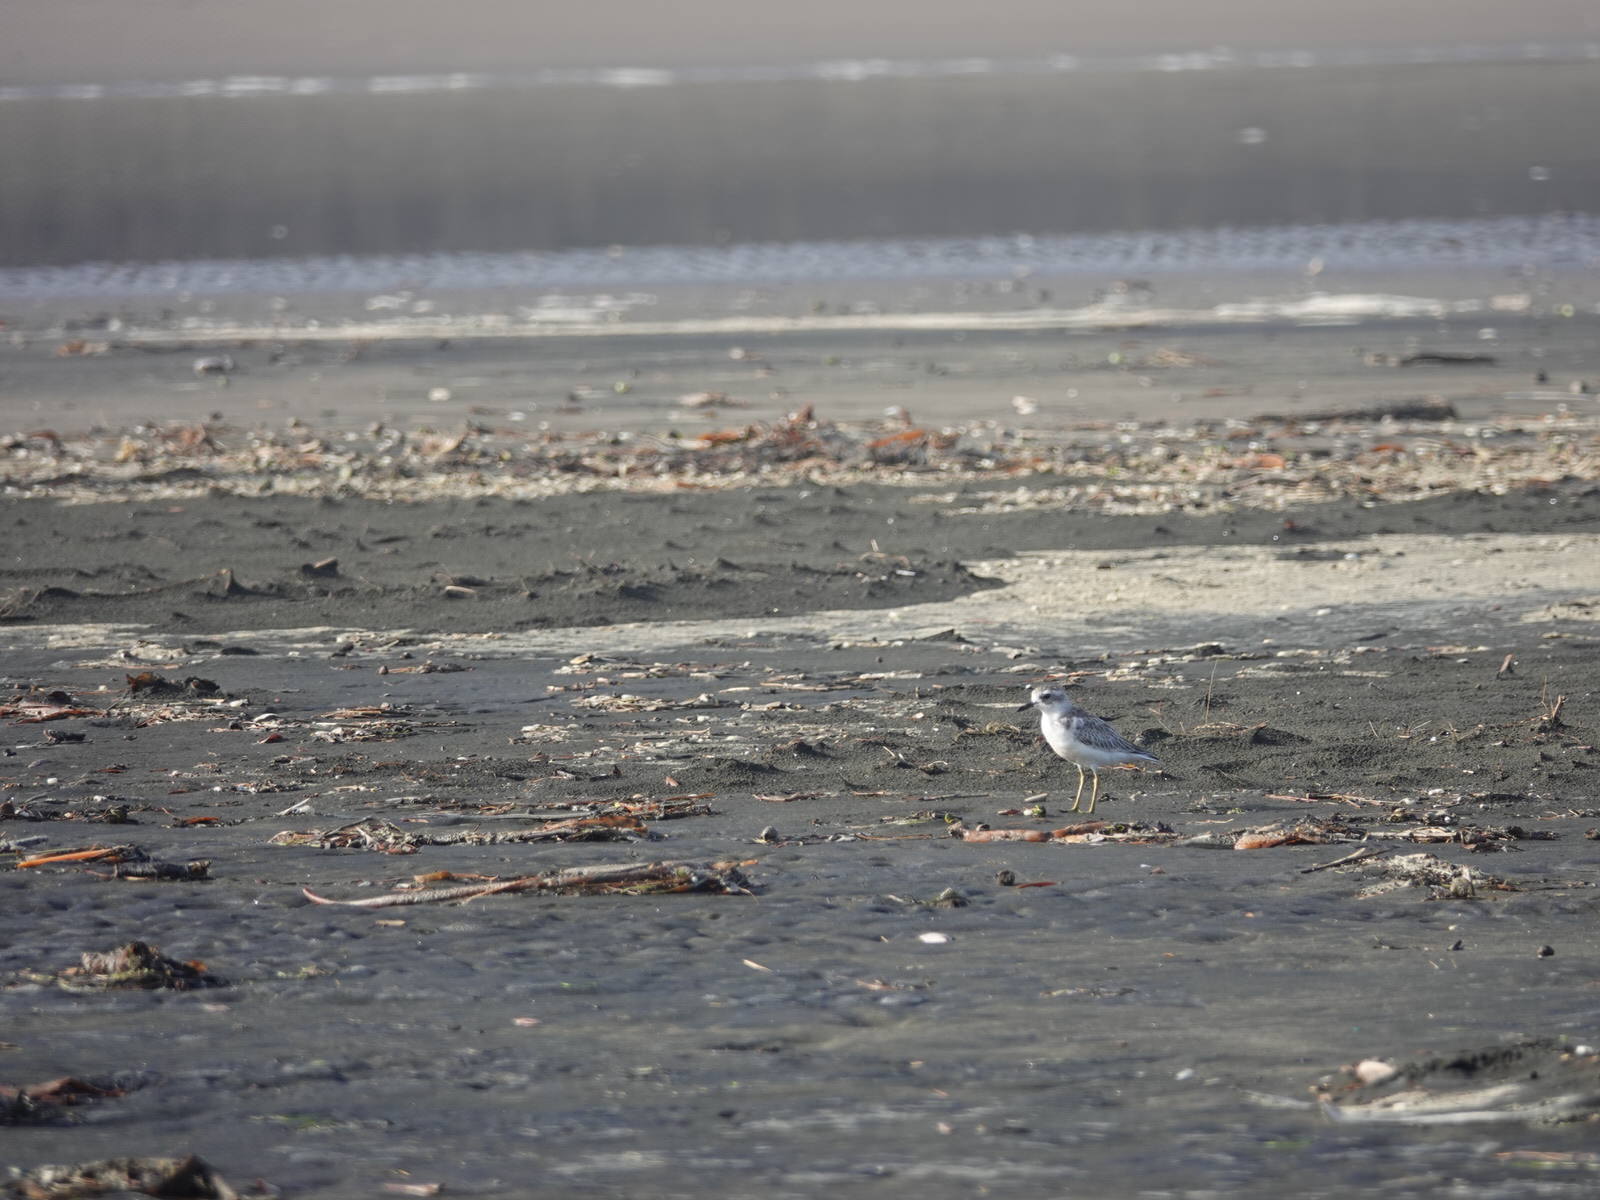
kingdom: Animalia
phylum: Chordata
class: Aves
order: Charadriiformes
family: Charadriidae
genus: Anarhynchus
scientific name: Anarhynchus
